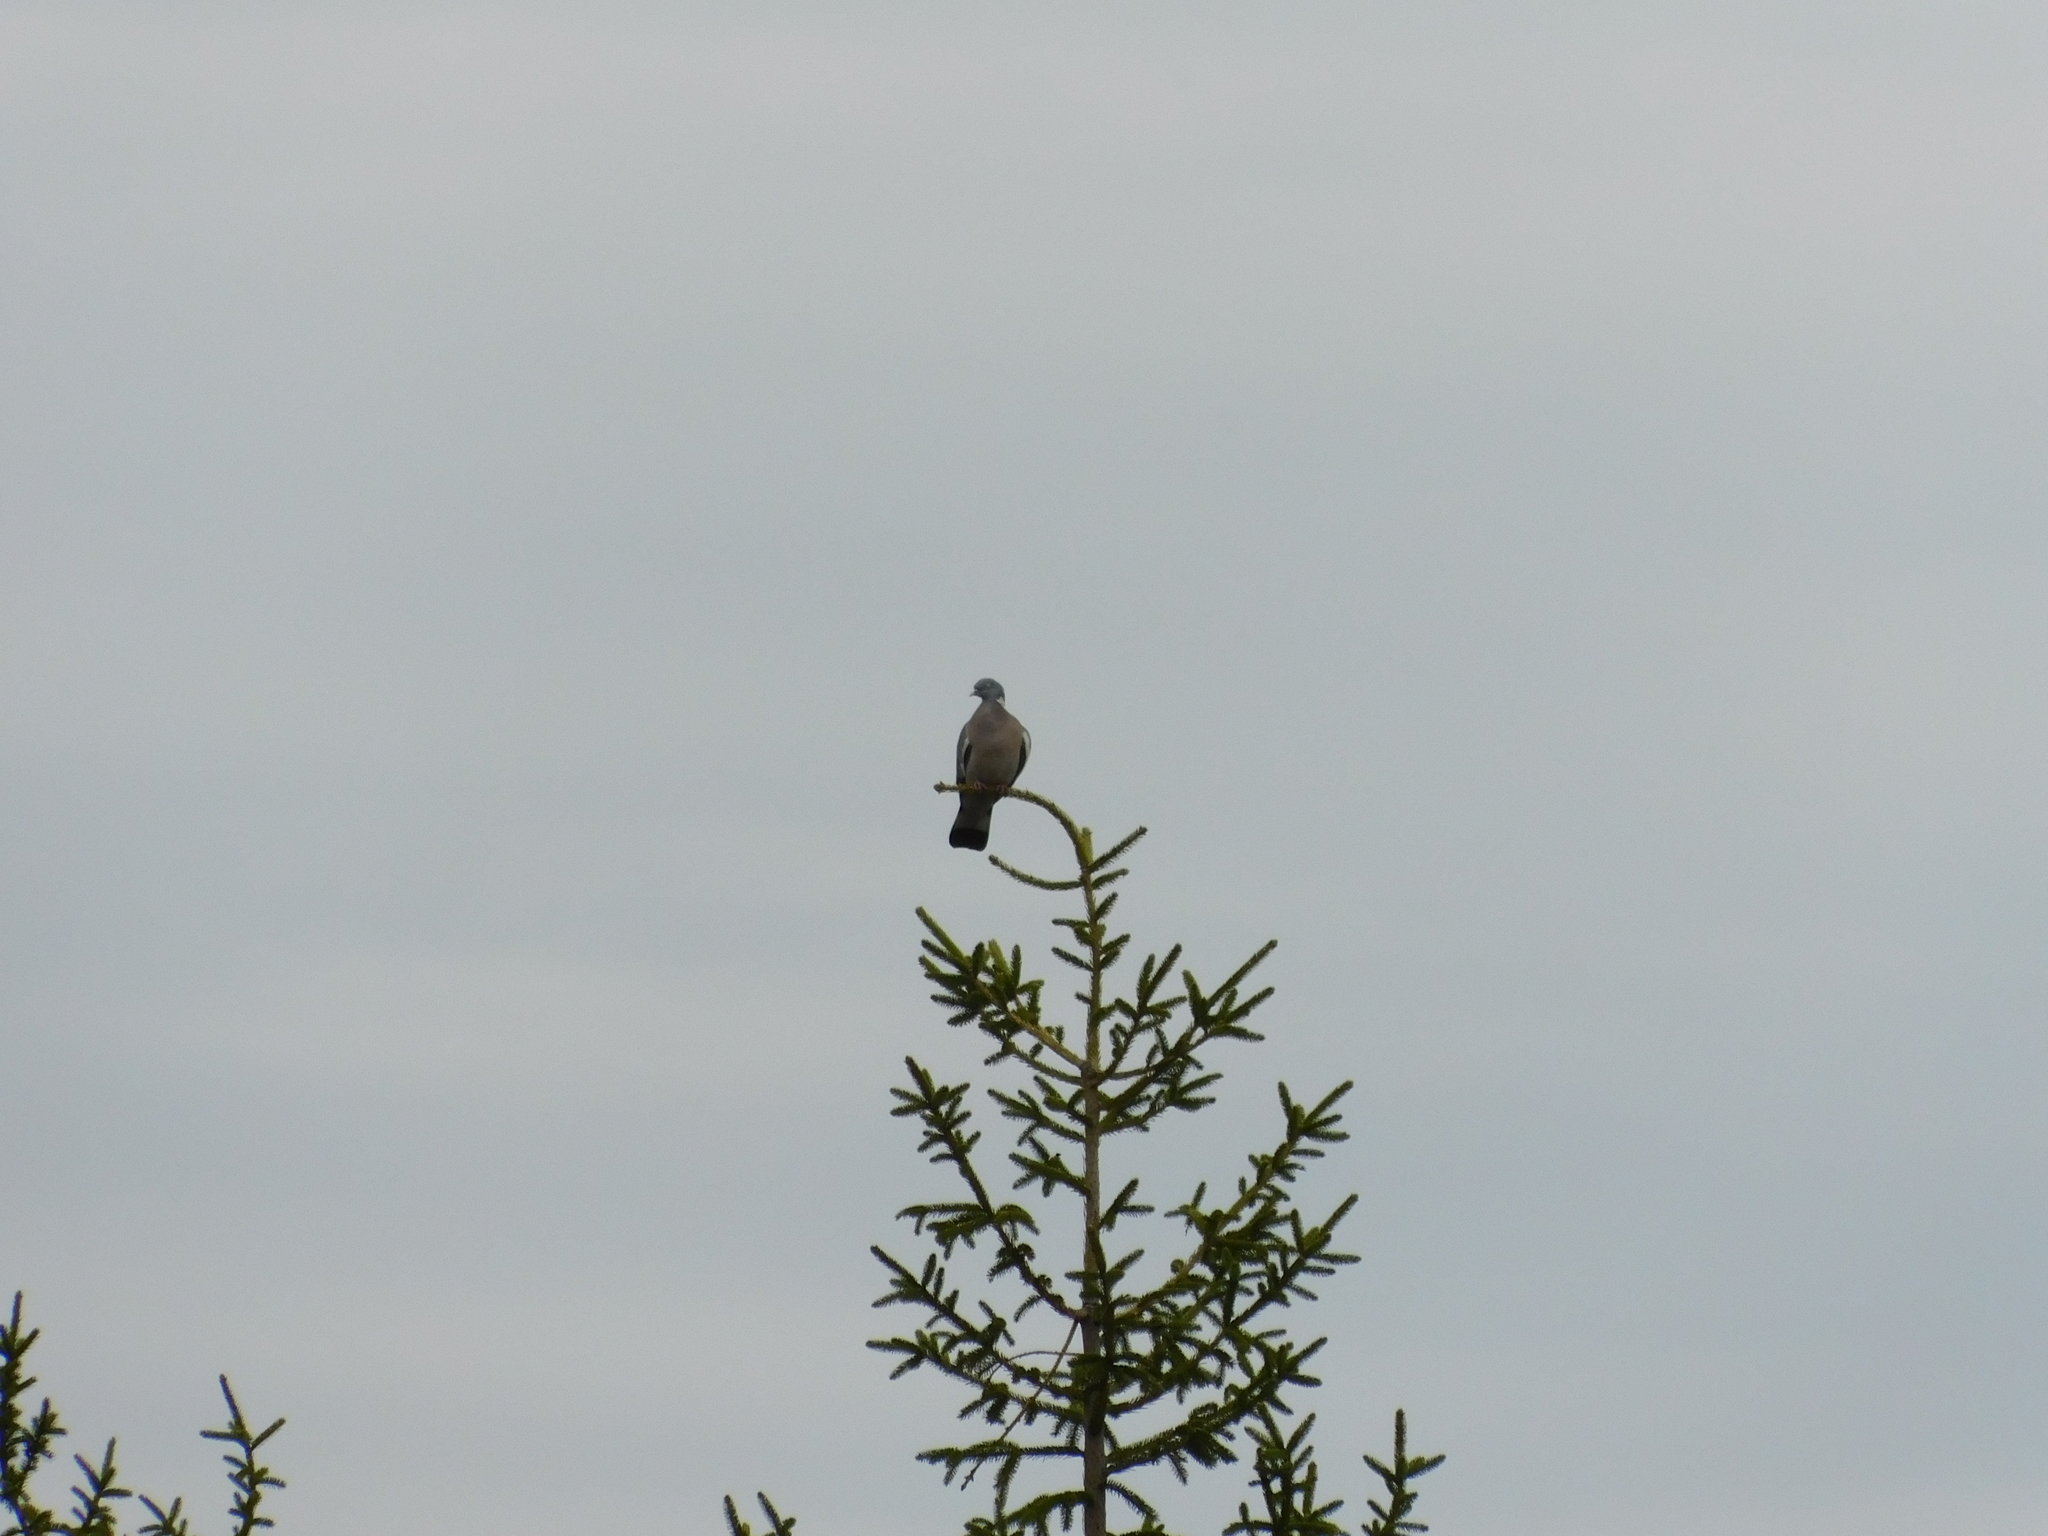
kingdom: Animalia
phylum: Chordata
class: Aves
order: Columbiformes
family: Columbidae
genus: Columba
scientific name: Columba palumbus
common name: Common wood pigeon
